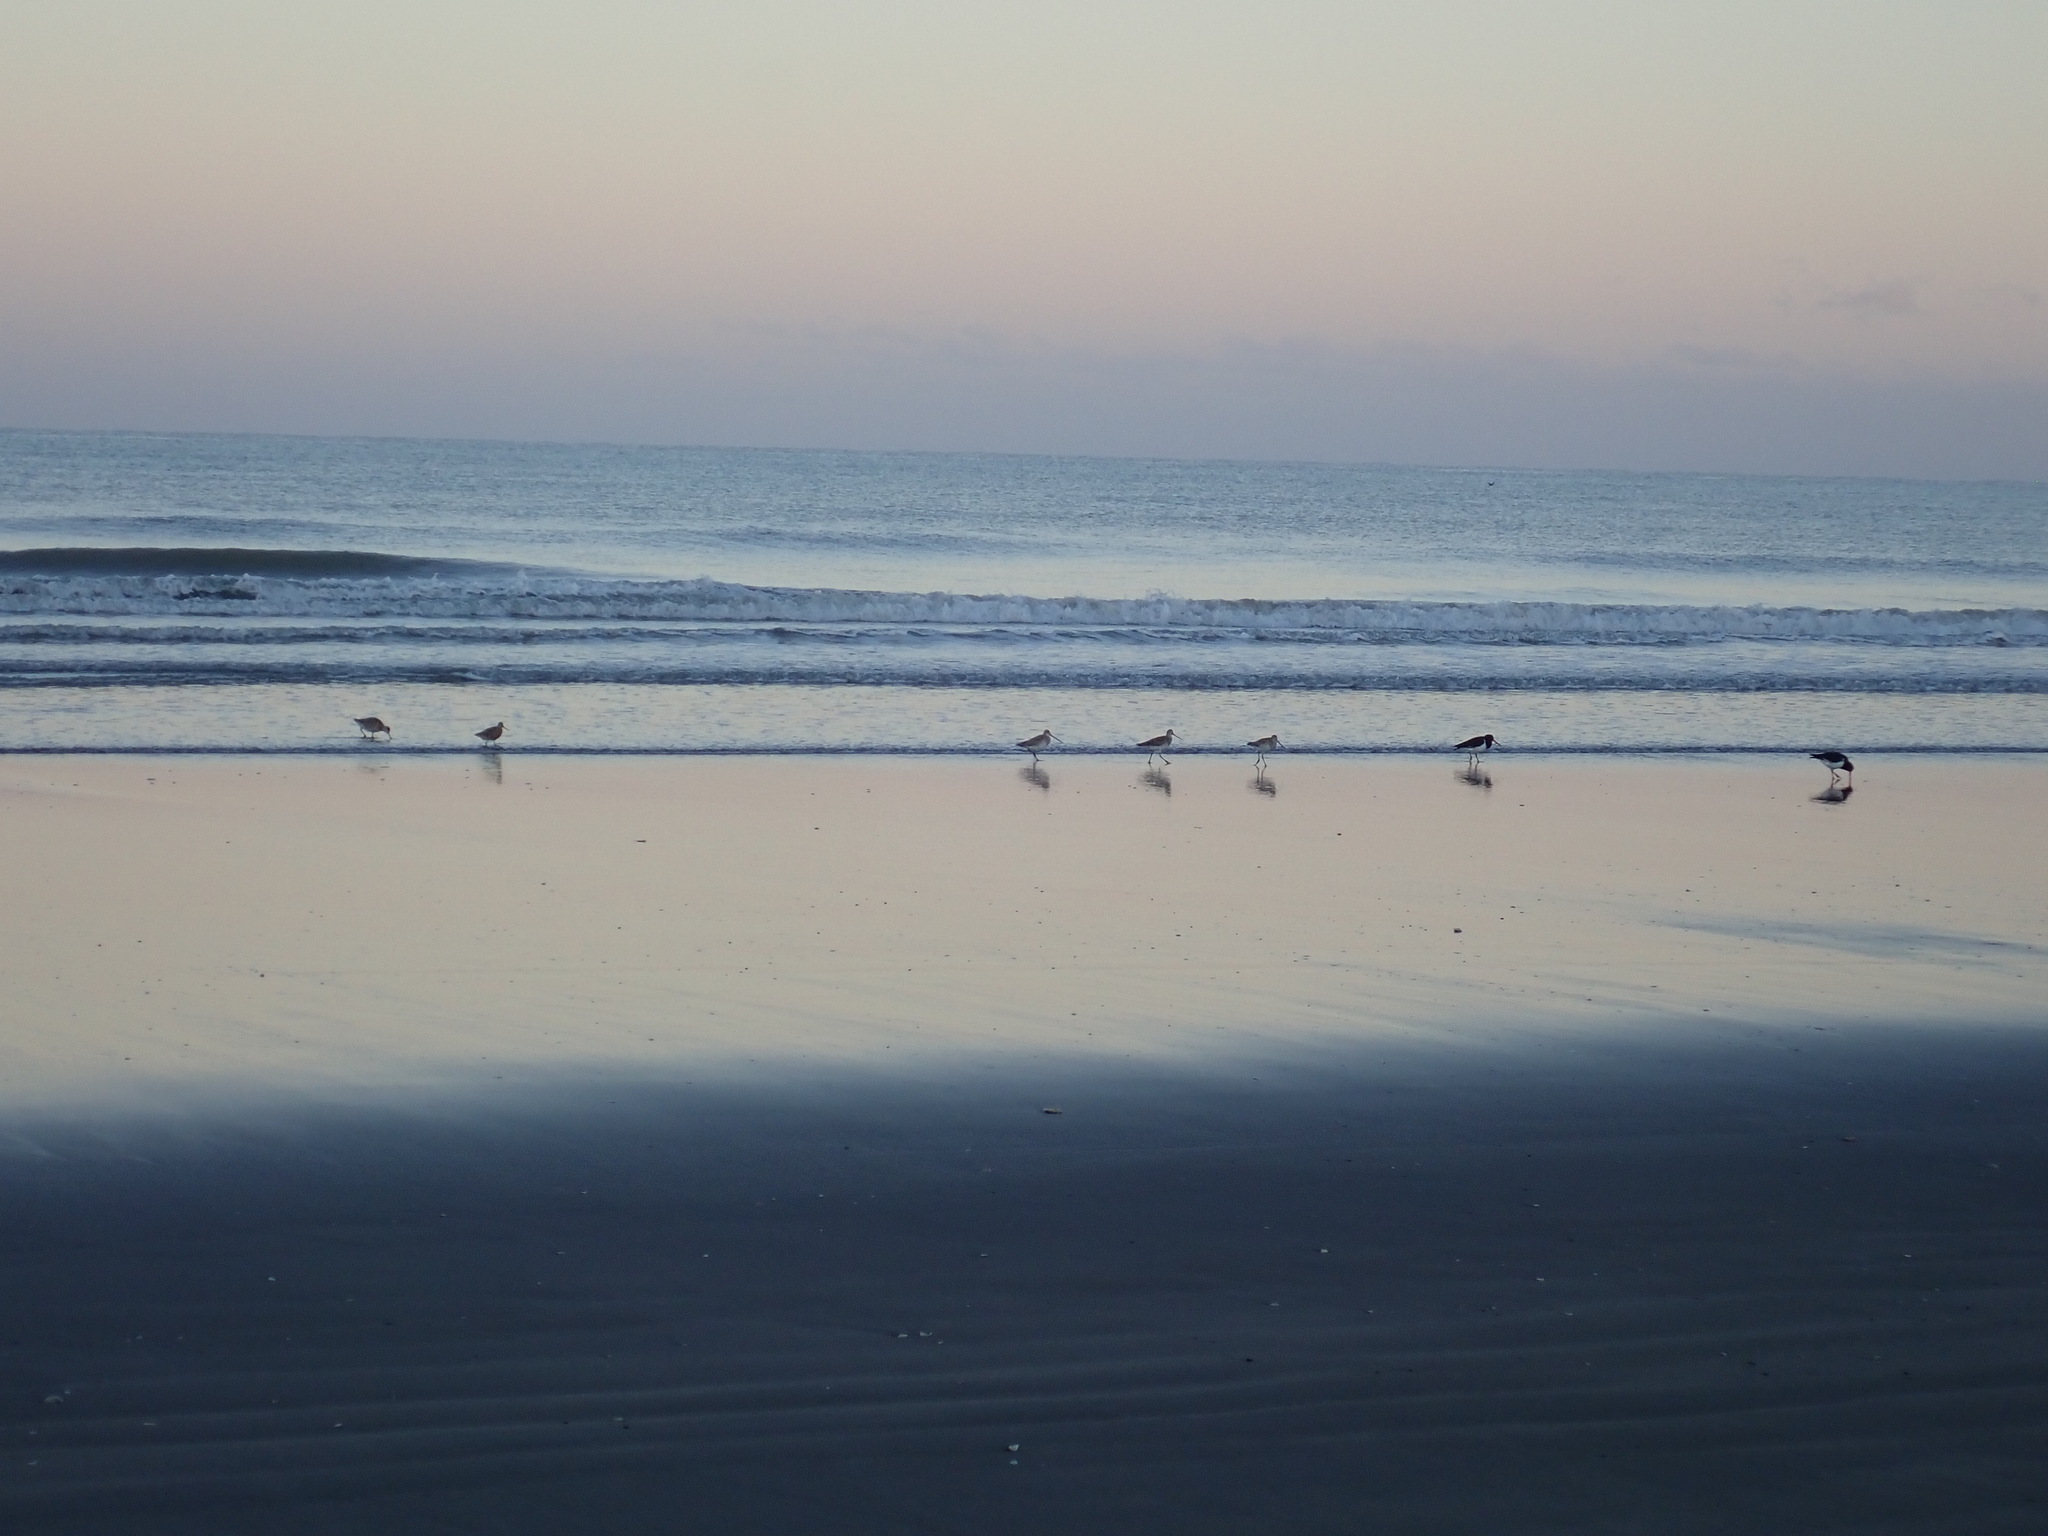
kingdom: Animalia
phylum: Chordata
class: Aves
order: Charadriiformes
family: Scolopacidae
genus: Limosa
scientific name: Limosa lapponica
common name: Bar-tailed godwit
